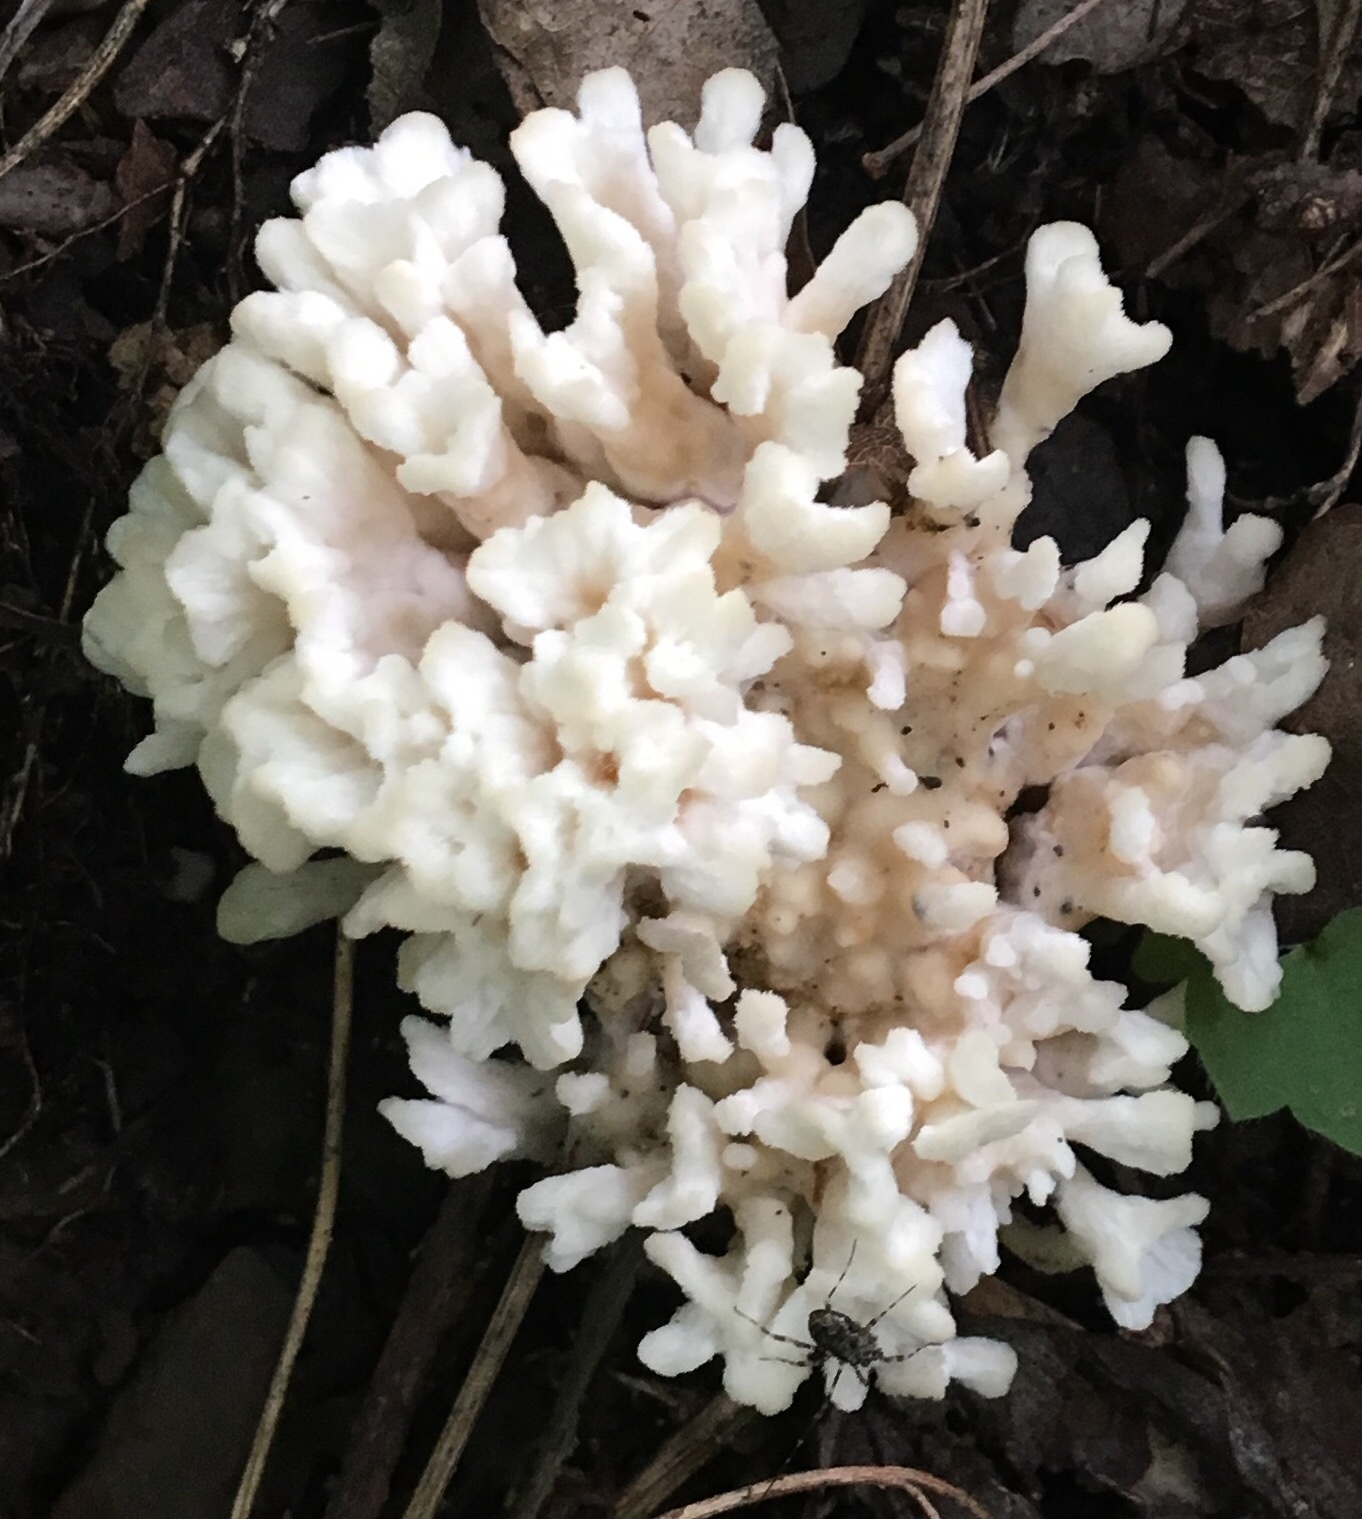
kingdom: Fungi
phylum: Basidiomycota
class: Agaricomycetes
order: Sebacinales
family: Sebacinaceae
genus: Sebacina
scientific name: Sebacina schweinitzii
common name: Jellied false coral fungus
